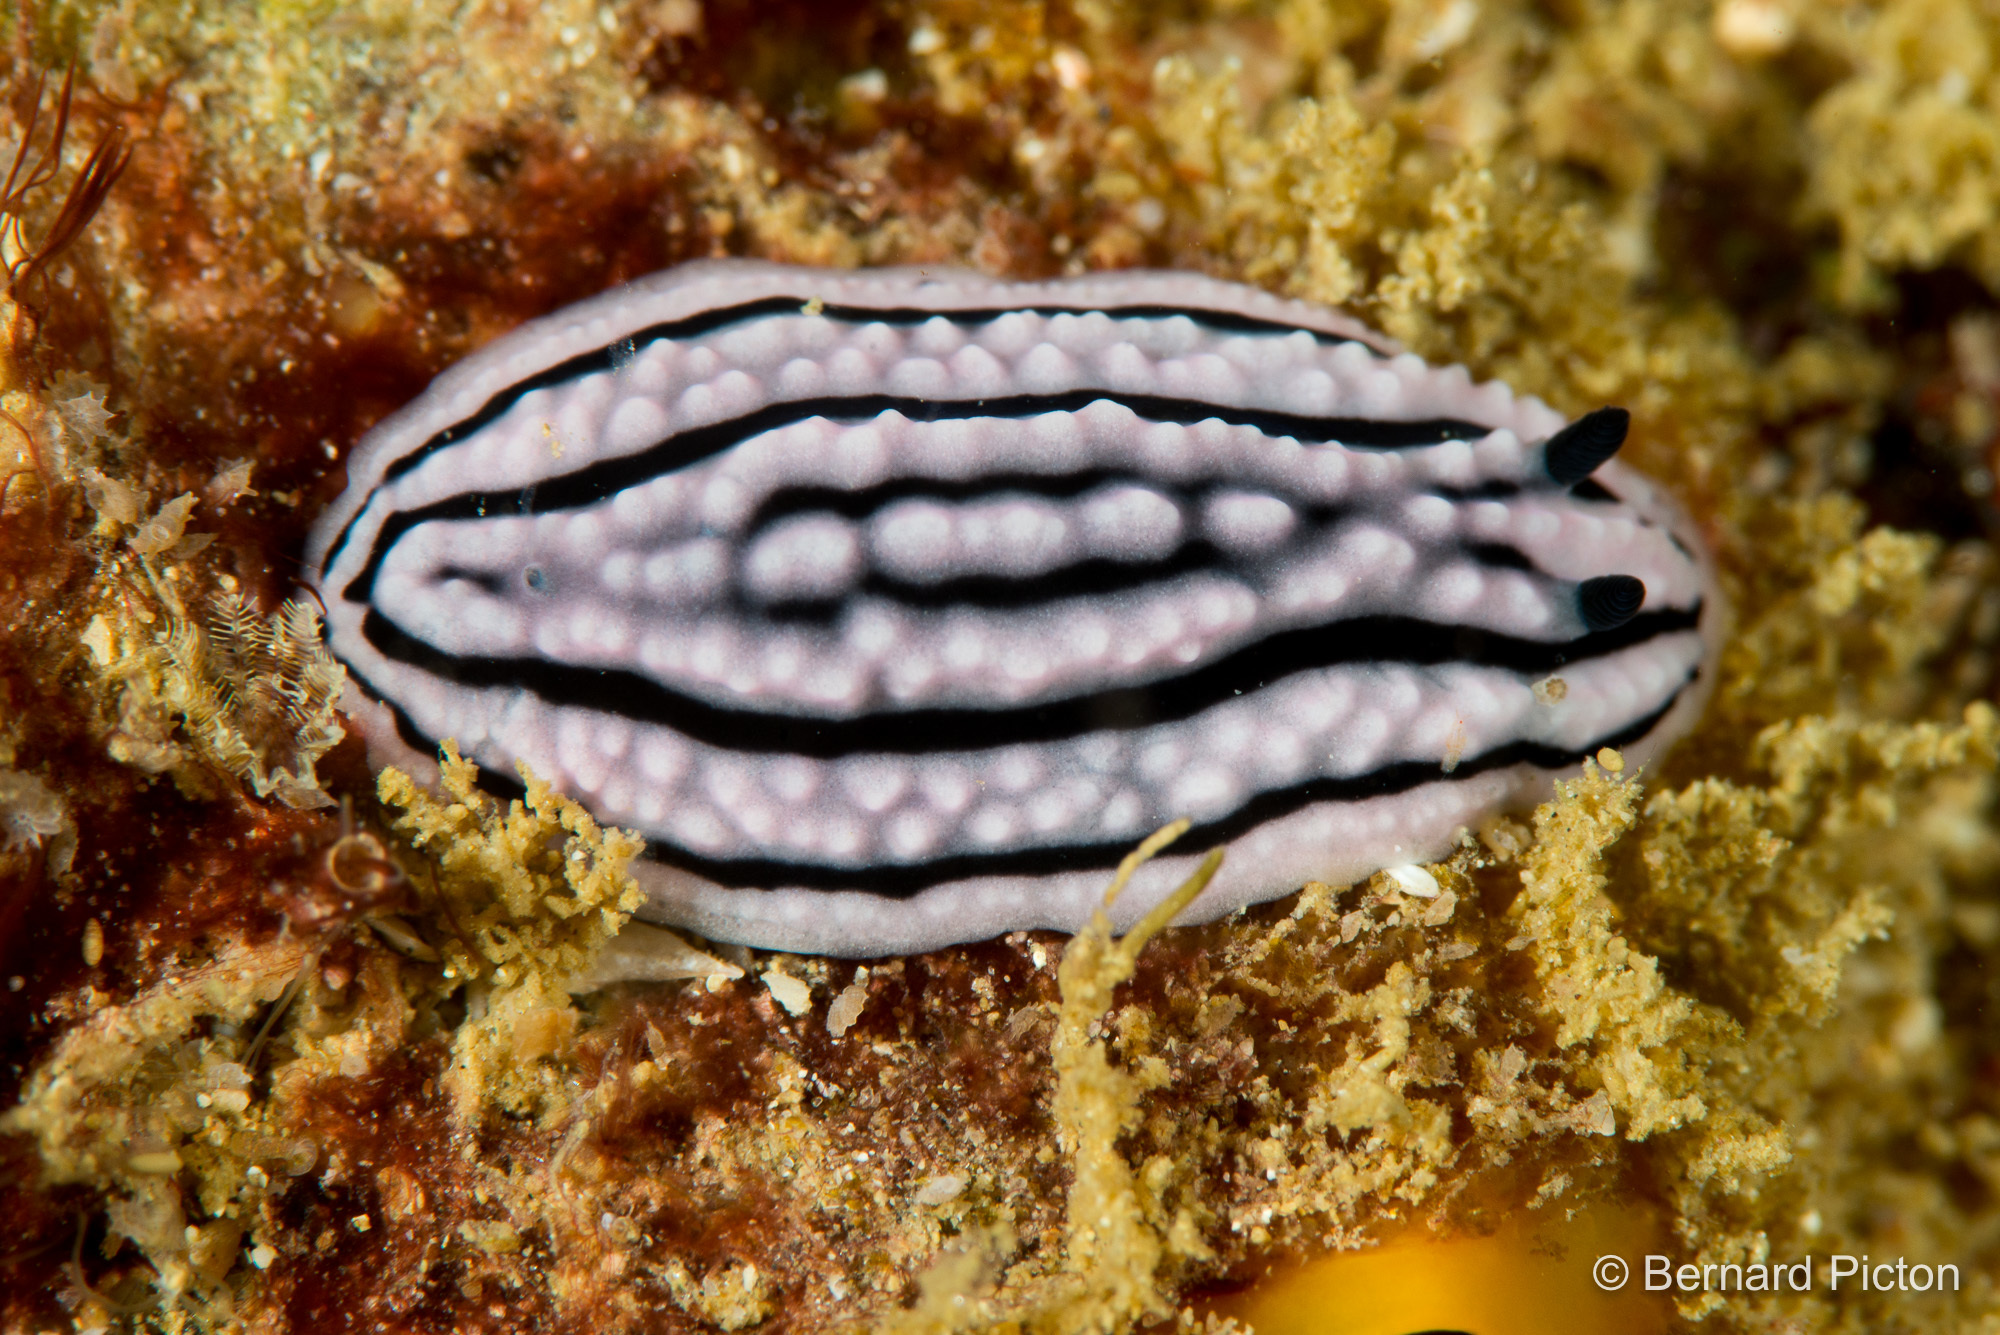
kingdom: Animalia
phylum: Mollusca
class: Gastropoda
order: Nudibranchia
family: Phyllidiidae
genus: Phyllidiella
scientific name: Phyllidiella zeylanica
